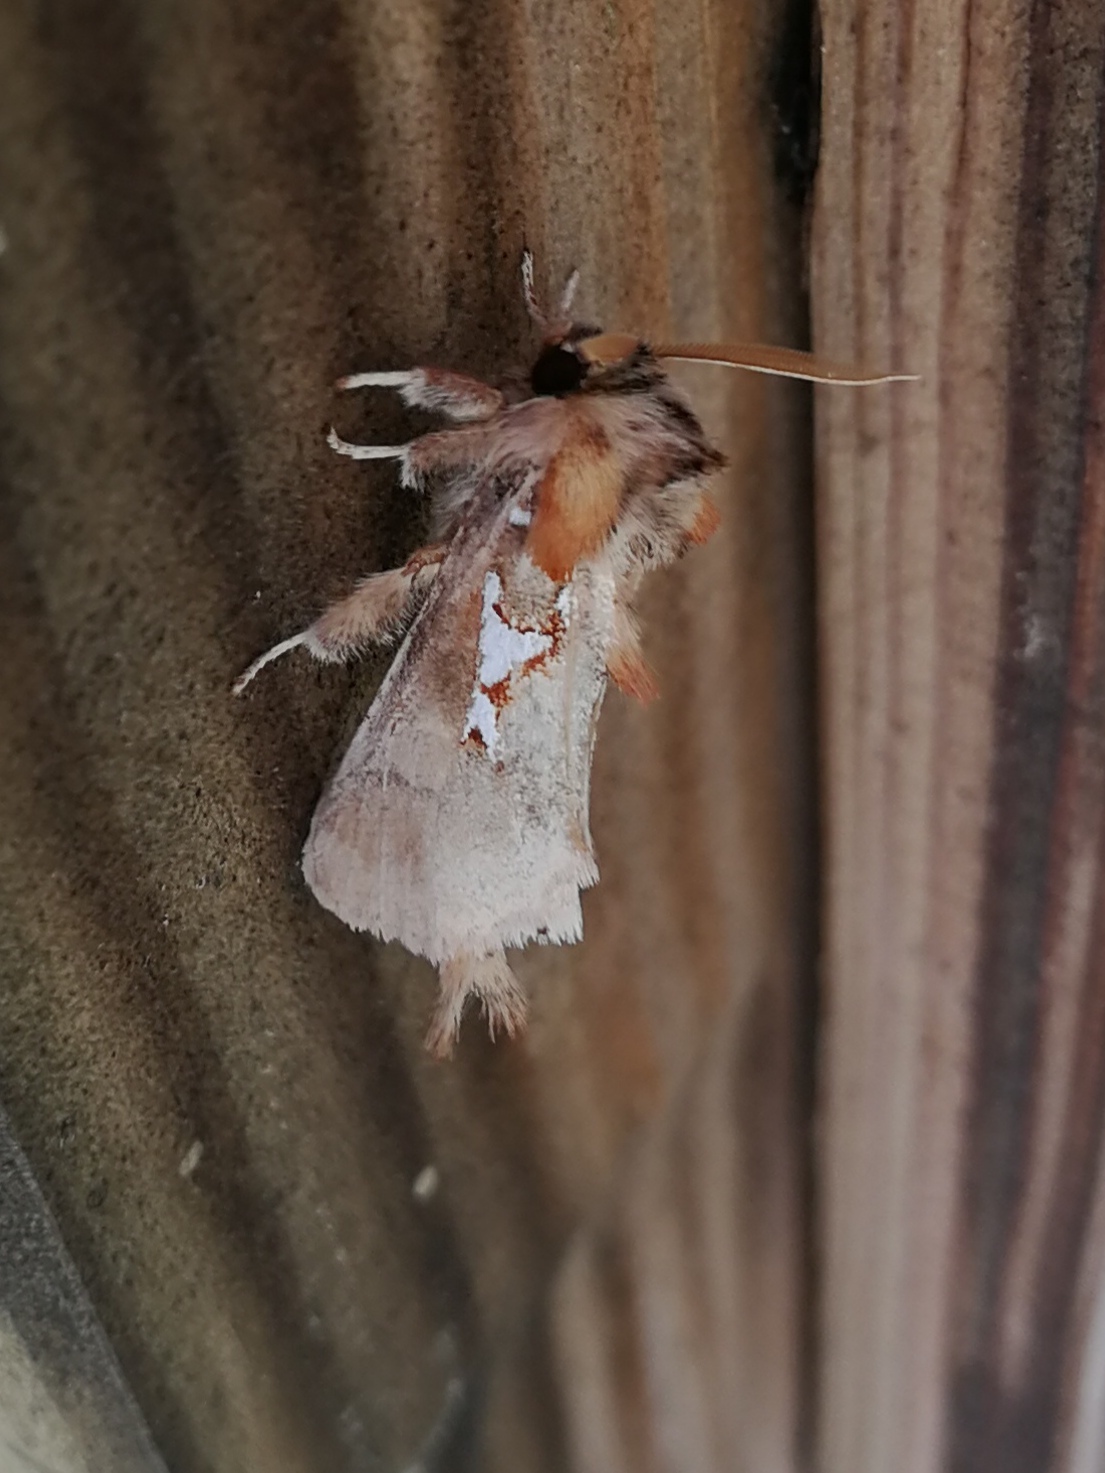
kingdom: Animalia
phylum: Arthropoda
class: Insecta
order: Lepidoptera
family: Notodontidae
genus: Spatalia
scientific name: Spatalia argentina
